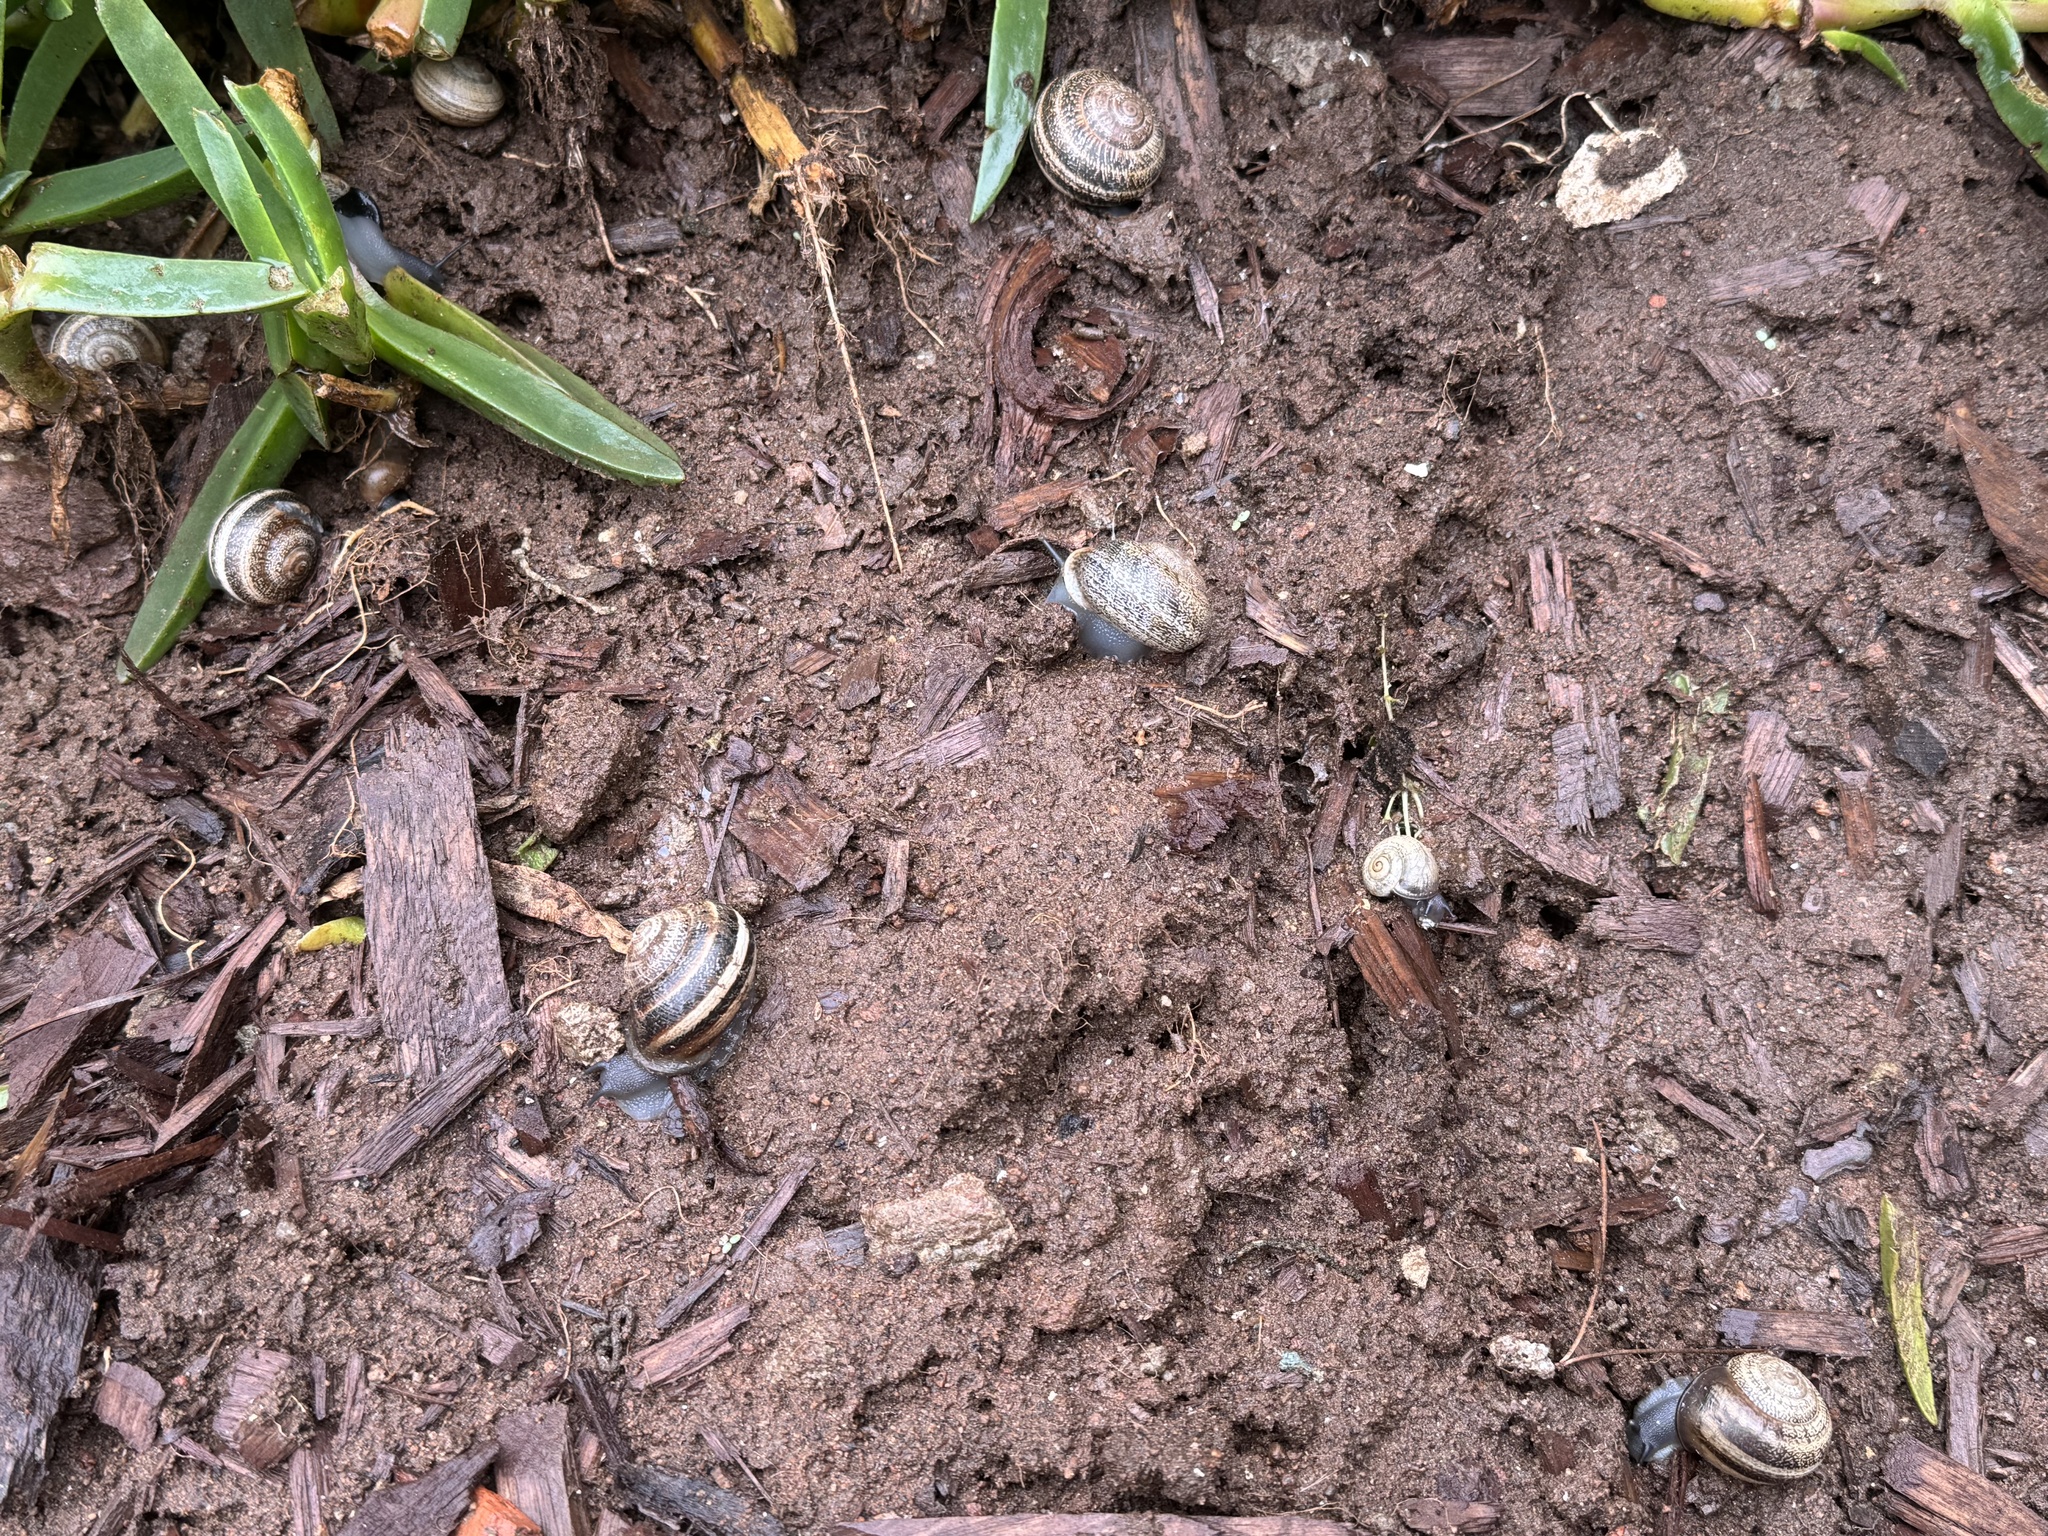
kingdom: Animalia
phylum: Mollusca
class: Gastropoda
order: Stylommatophora
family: Helicidae
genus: Otala
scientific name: Otala lactea
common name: Milk snail
